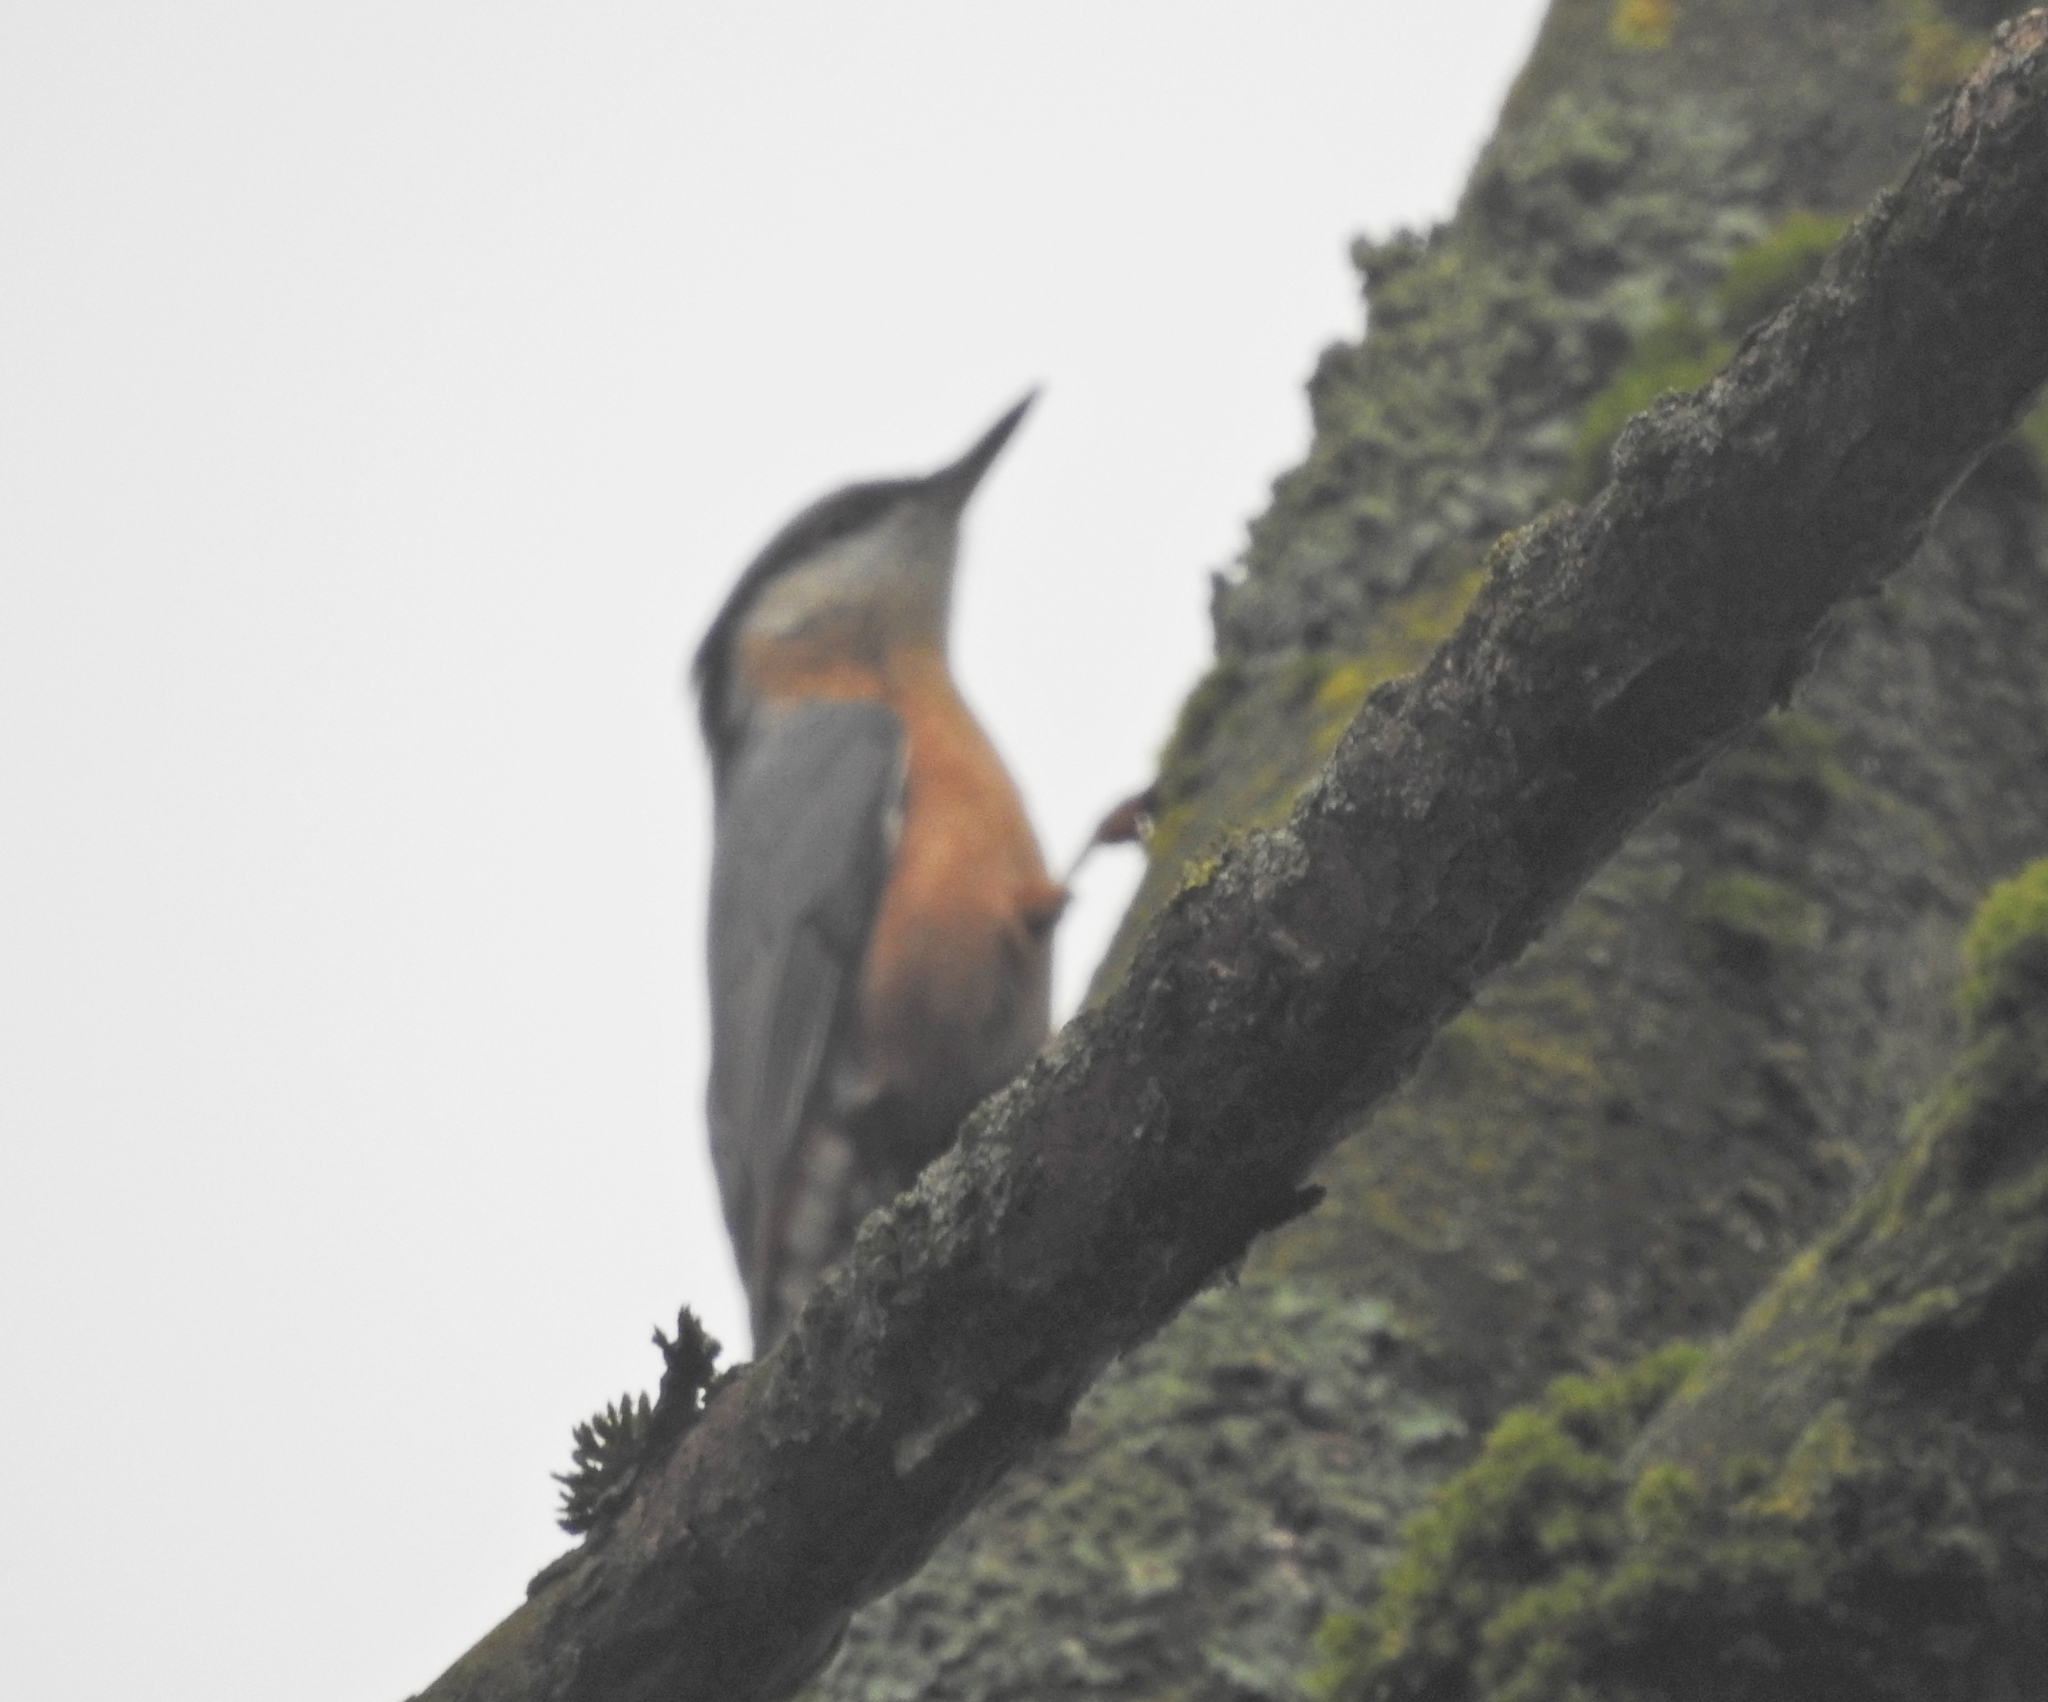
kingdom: Animalia
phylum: Chordata
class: Aves
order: Passeriformes
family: Sittidae
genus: Sitta
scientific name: Sitta europaea
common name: Eurasian nuthatch
